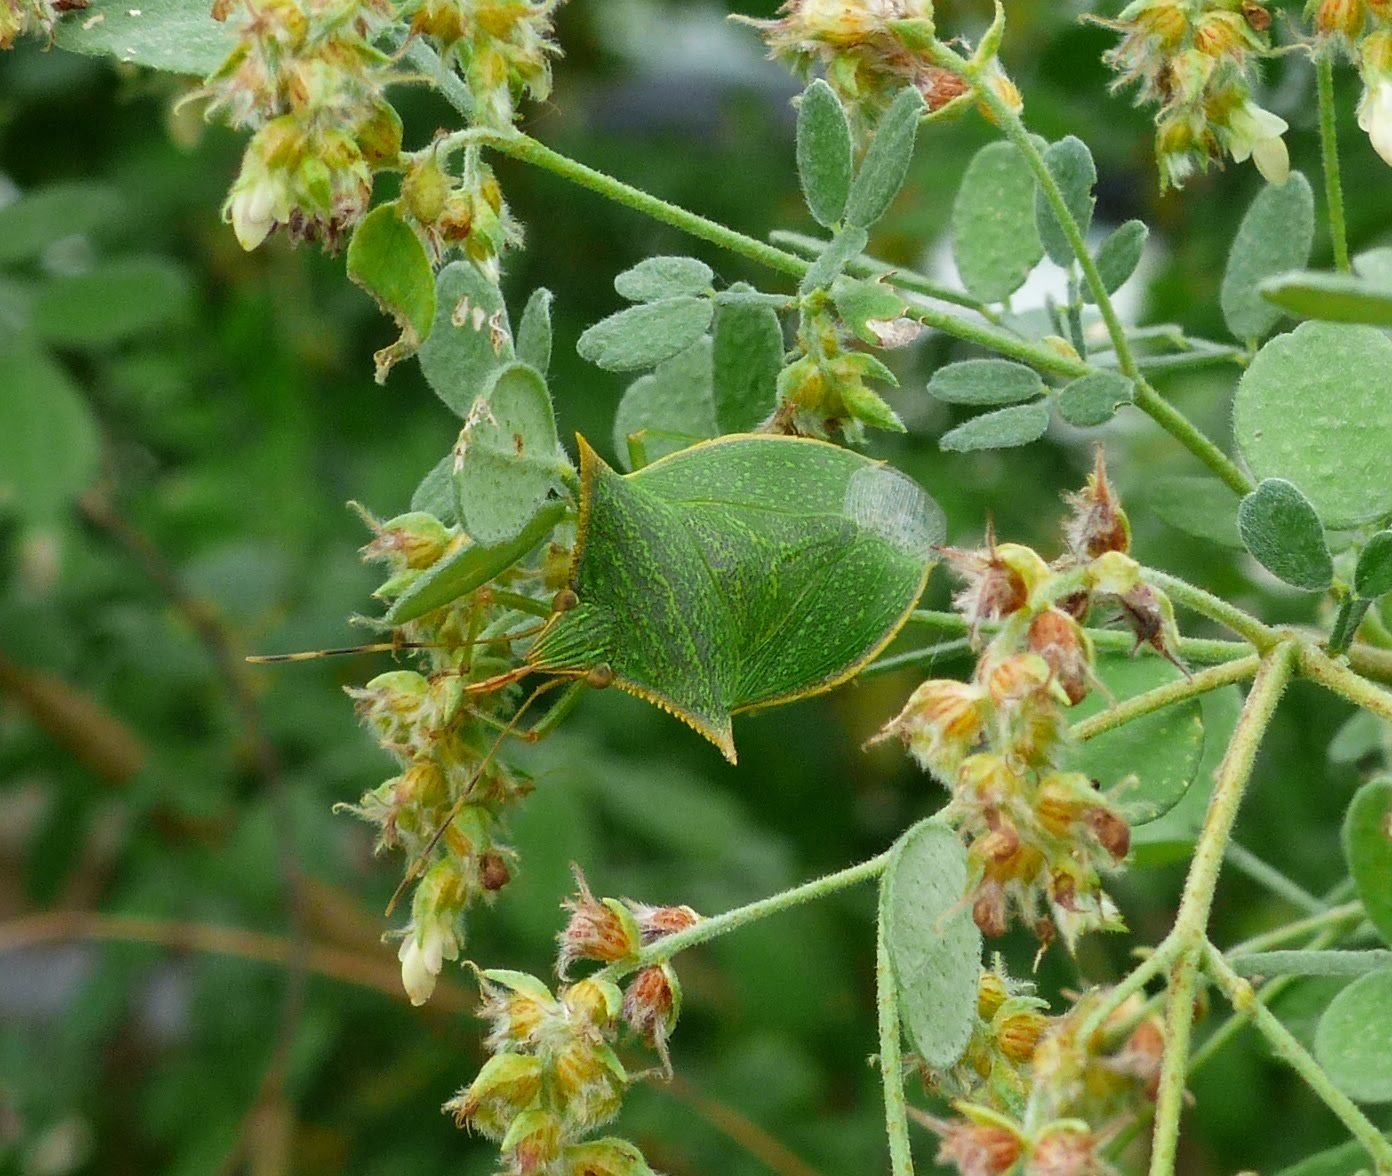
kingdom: Animalia
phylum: Arthropoda
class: Insecta
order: Hemiptera
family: Pentatomidae
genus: Loxa
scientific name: Loxa viridis
